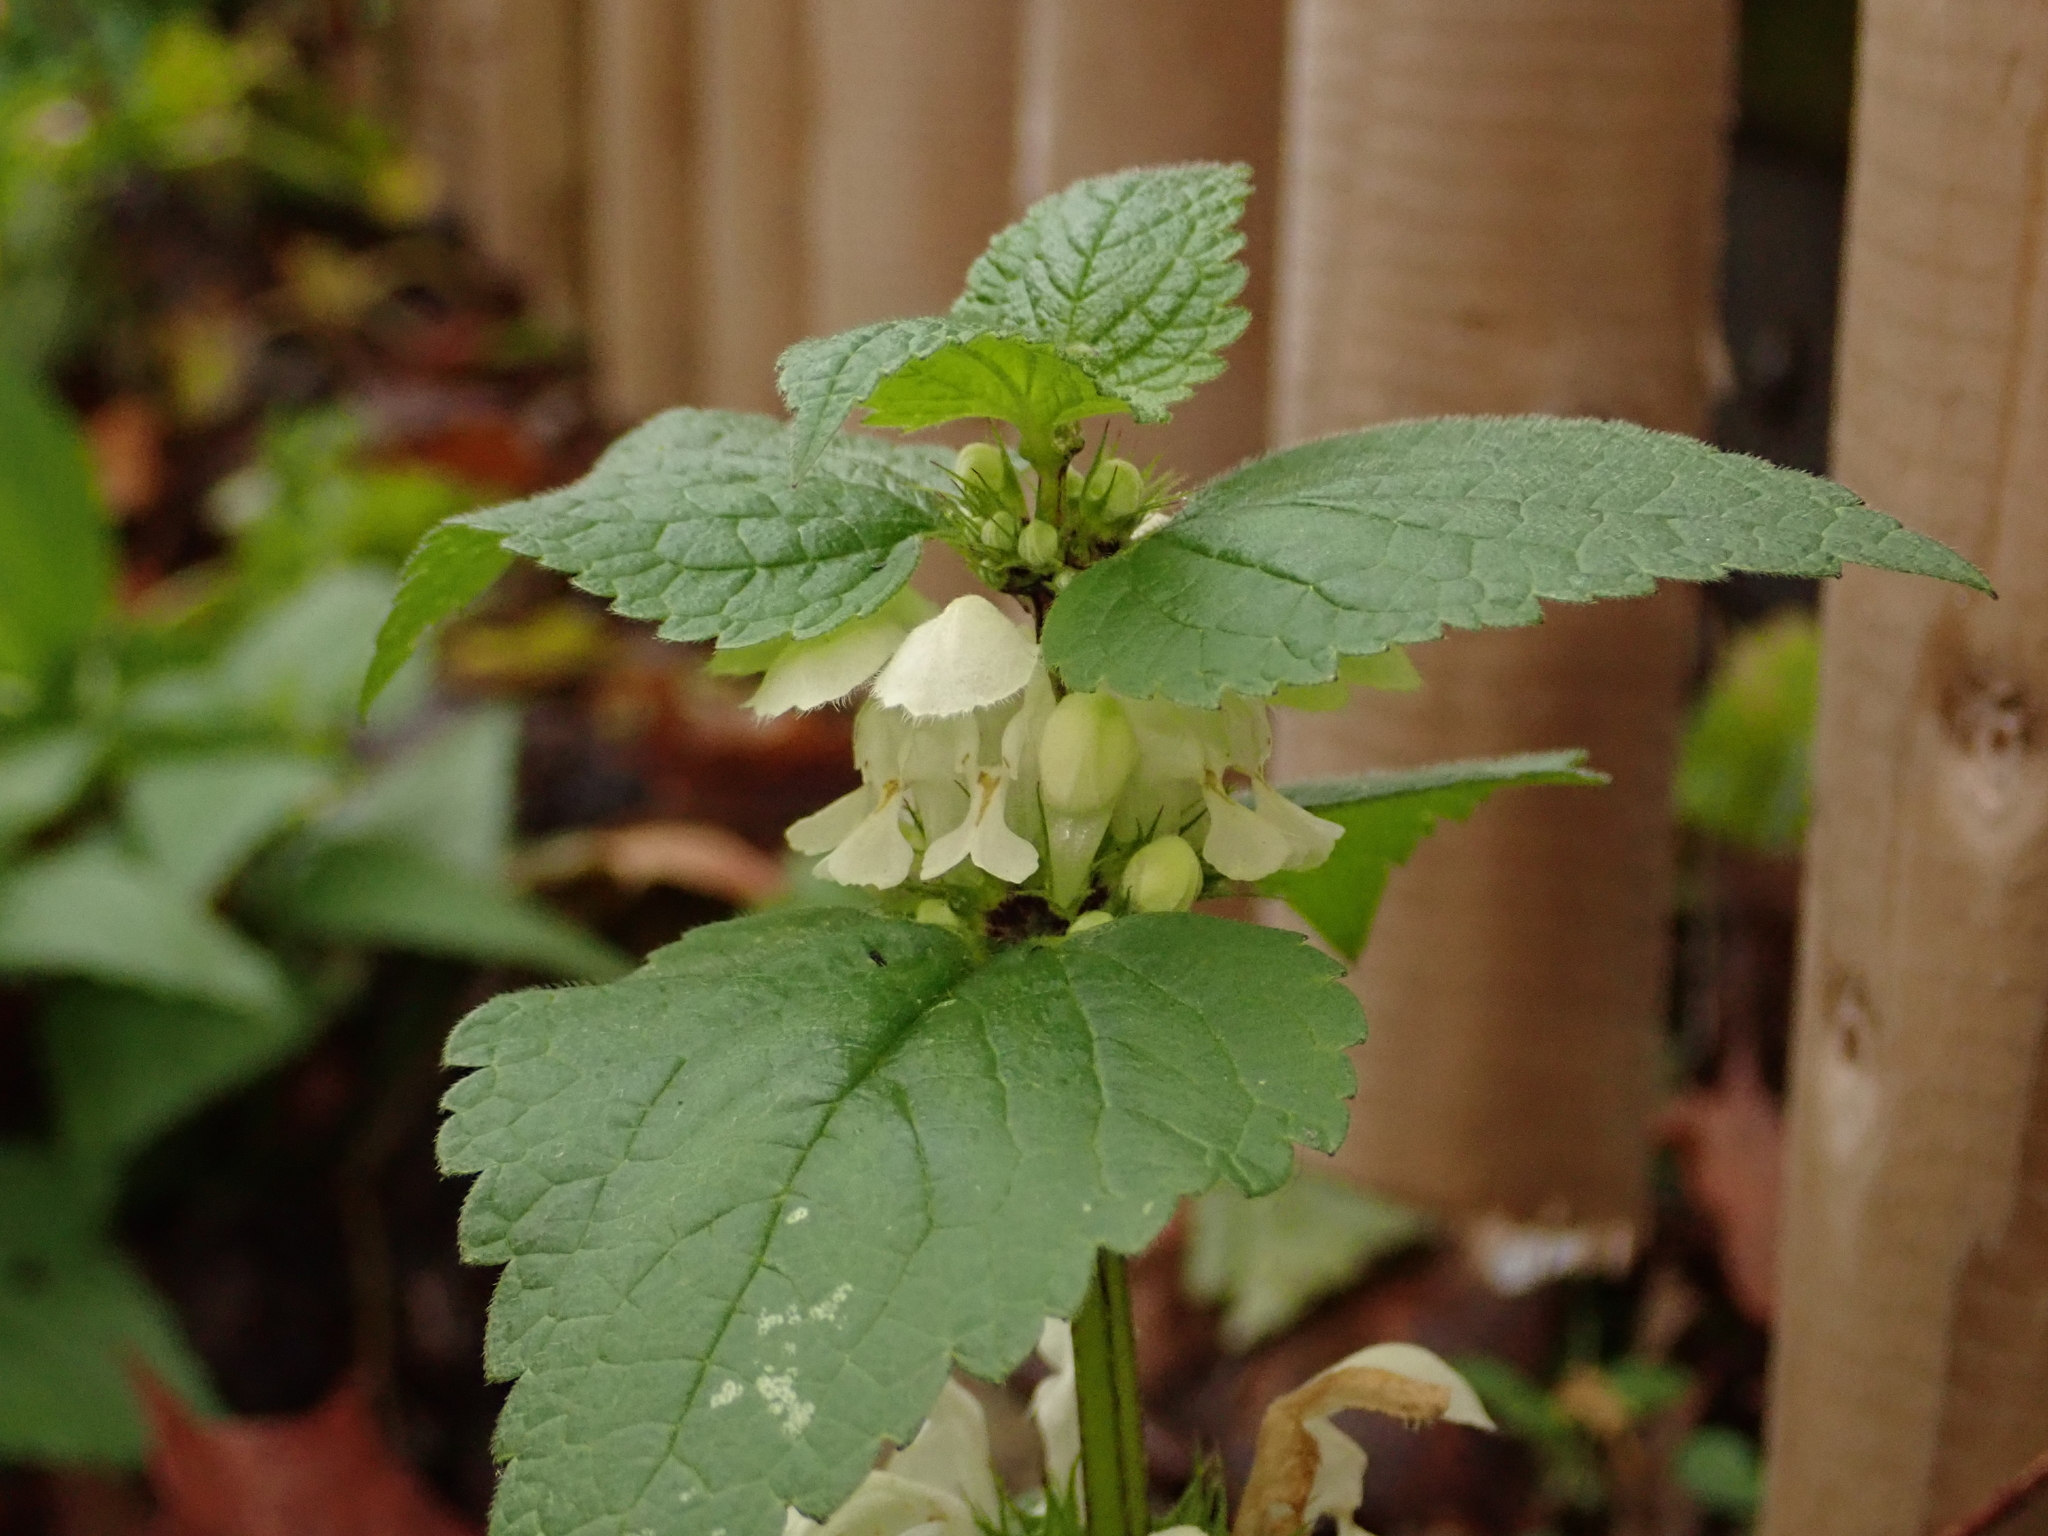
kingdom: Plantae
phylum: Tracheophyta
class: Magnoliopsida
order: Lamiales
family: Lamiaceae
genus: Lamium
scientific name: Lamium album
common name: White dead-nettle
